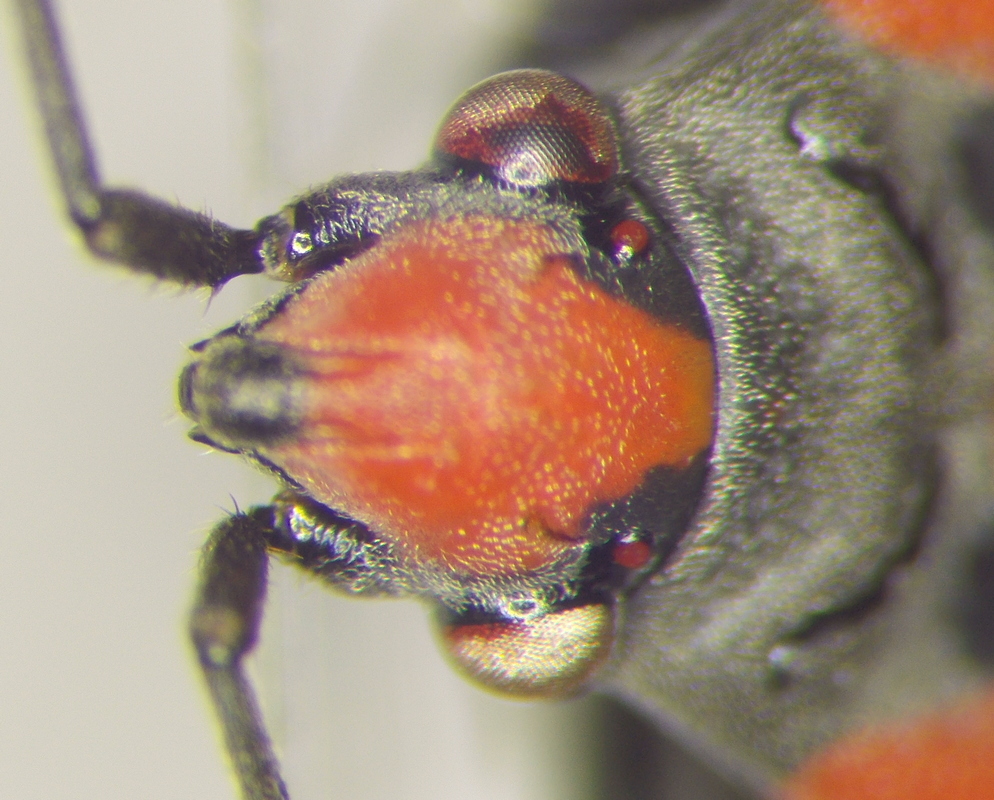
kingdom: Animalia
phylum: Arthropoda
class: Insecta
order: Hemiptera
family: Lygaeidae
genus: Lygaeus
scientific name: Lygaeus simulans
